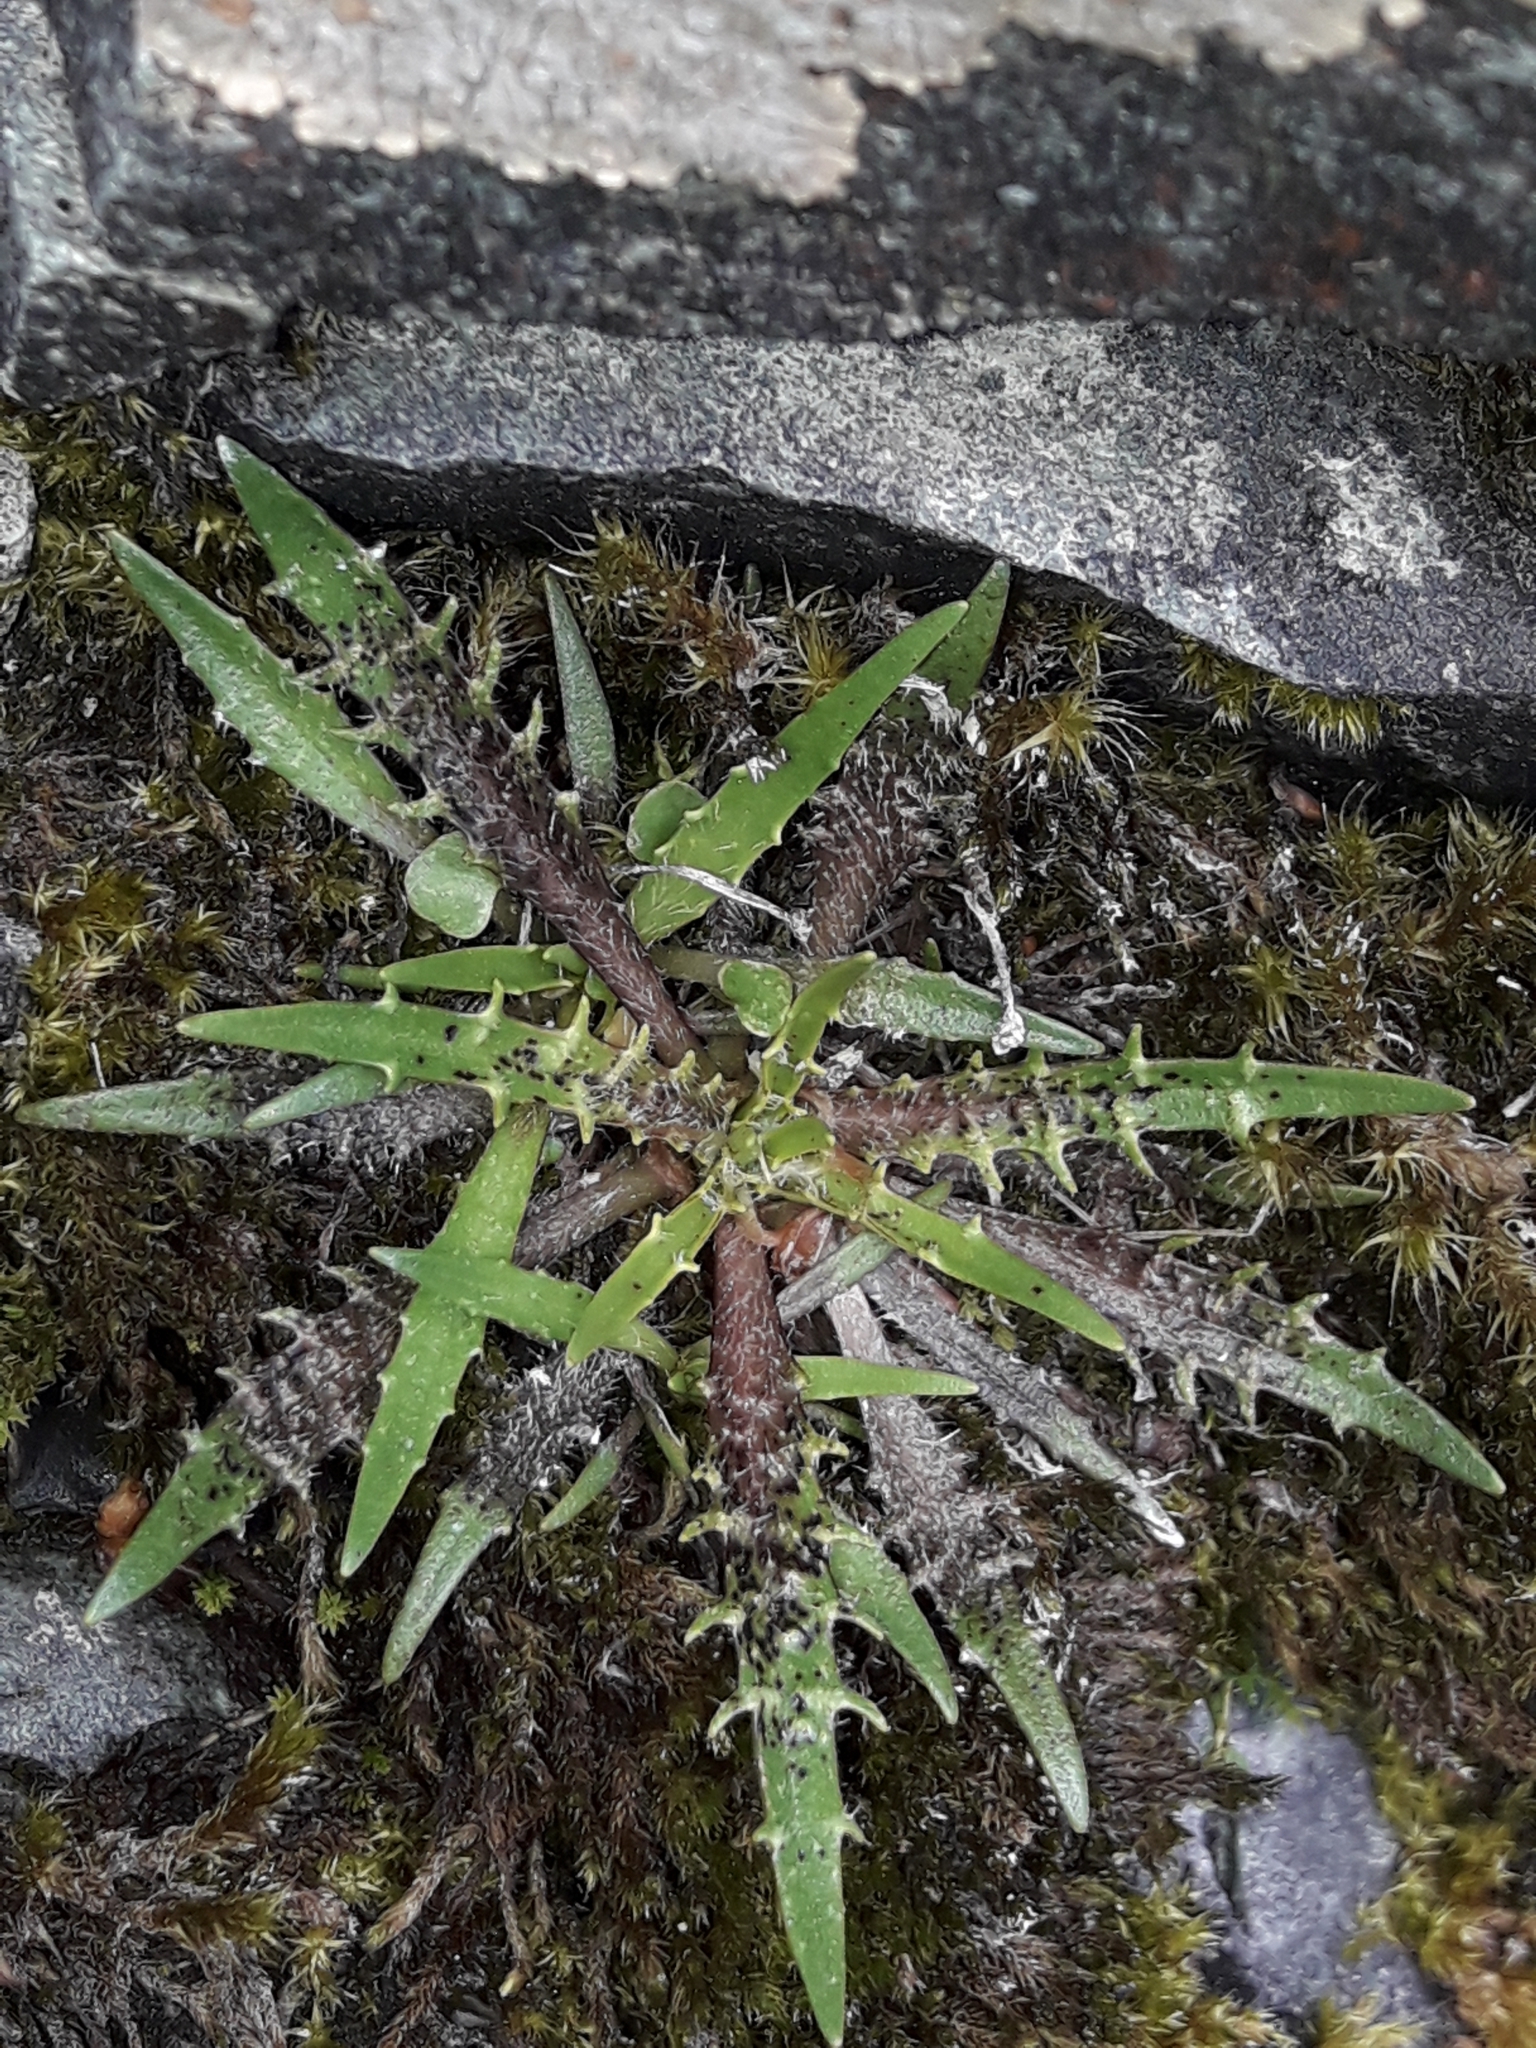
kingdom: Plantae
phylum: Tracheophyta
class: Magnoliopsida
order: Lamiales
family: Plantaginaceae
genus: Plantago
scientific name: Plantago triandra
